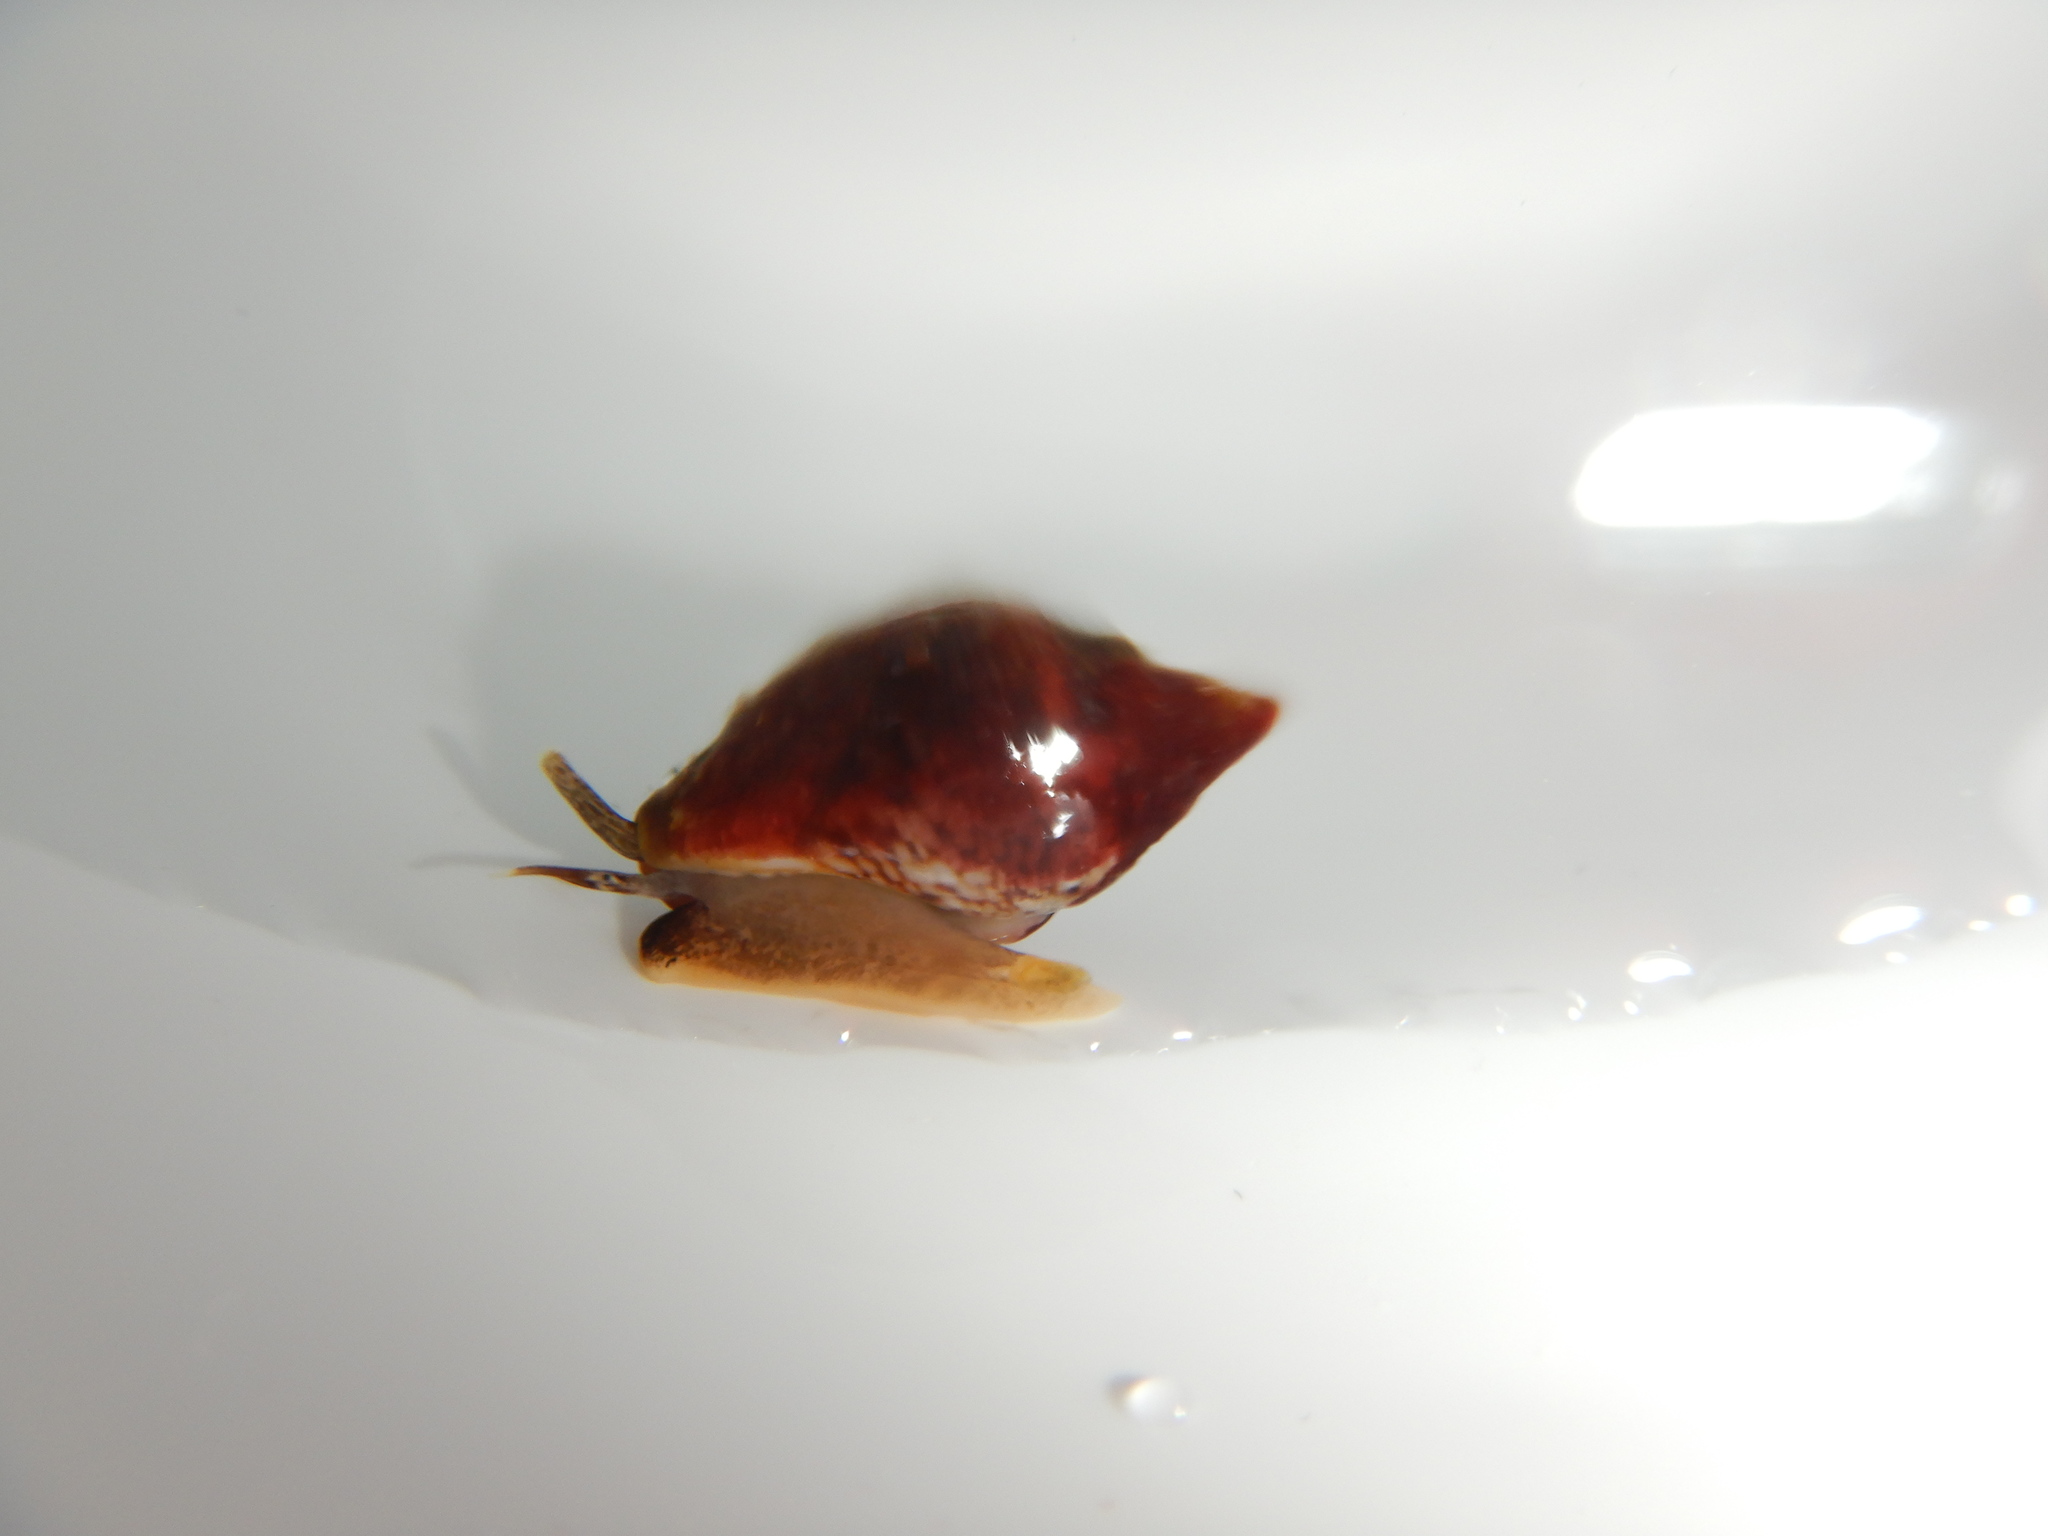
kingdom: Animalia
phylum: Mollusca
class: Gastropoda
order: Neogastropoda
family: Columbellidae
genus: Columbella
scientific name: Columbella rustica
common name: Rustic dove shell
